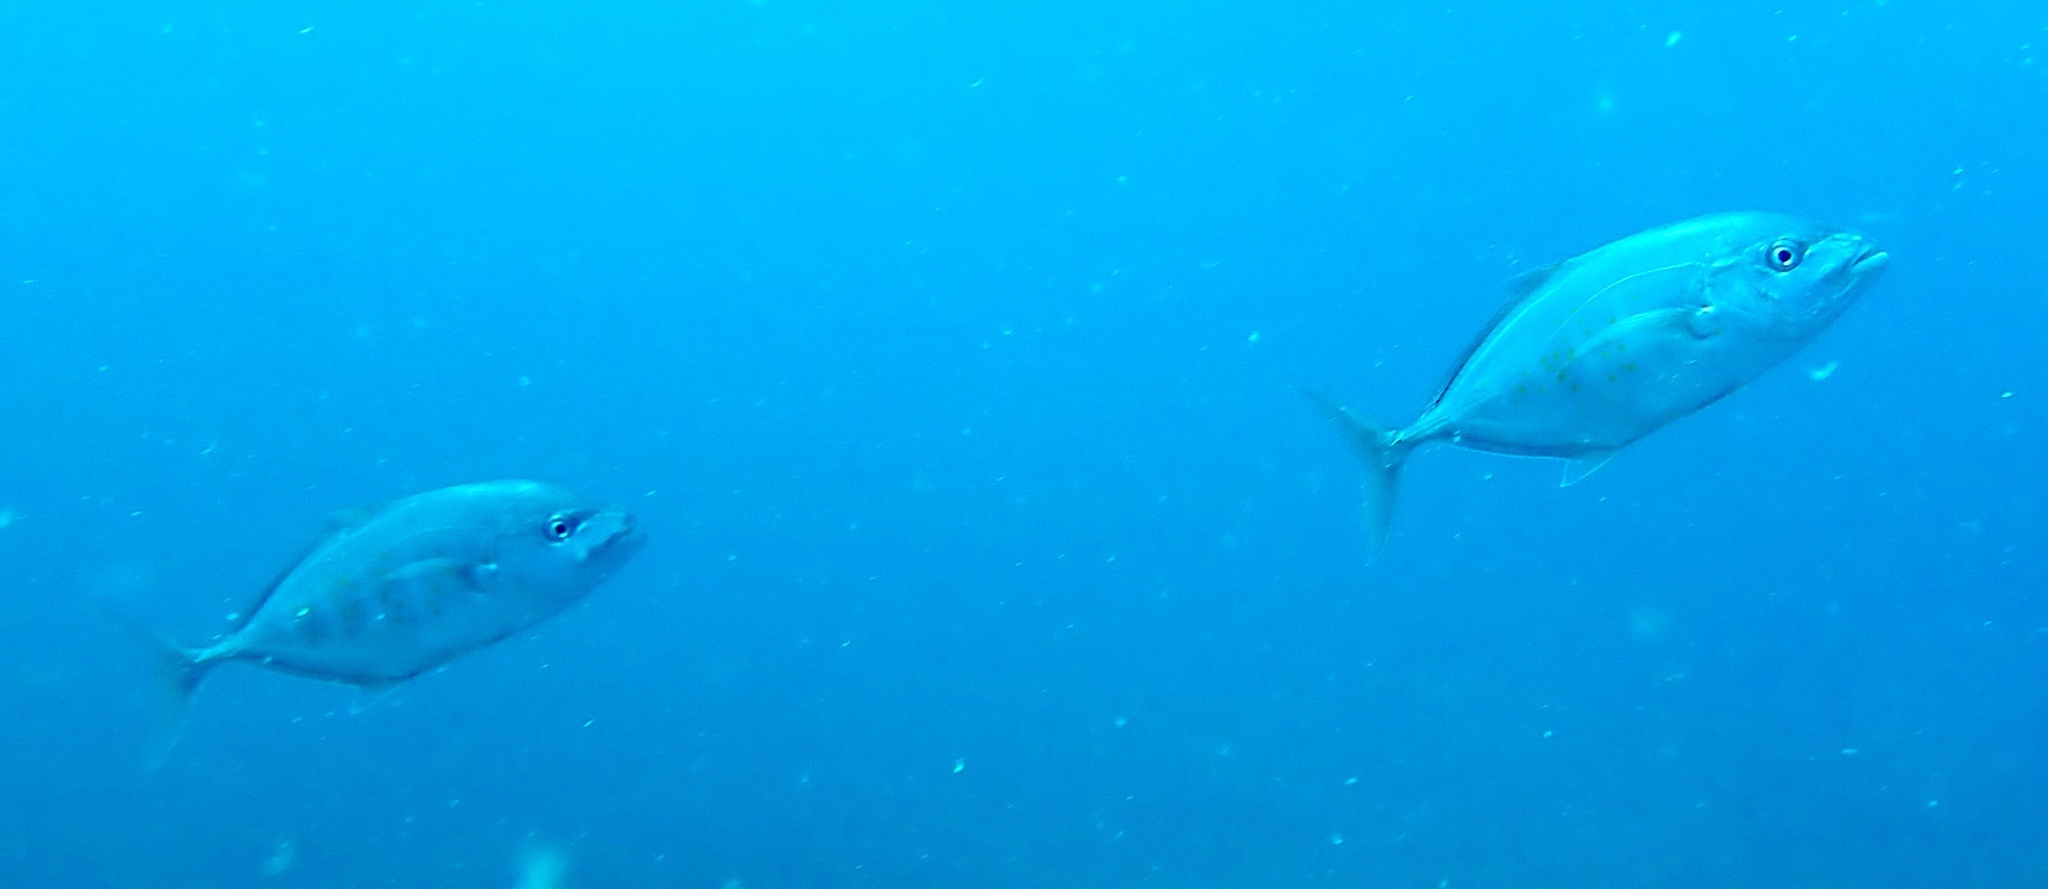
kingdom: Animalia
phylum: Chordata
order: Perciformes
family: Carangidae
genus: Flavocaranx
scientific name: Flavocaranx bajad
